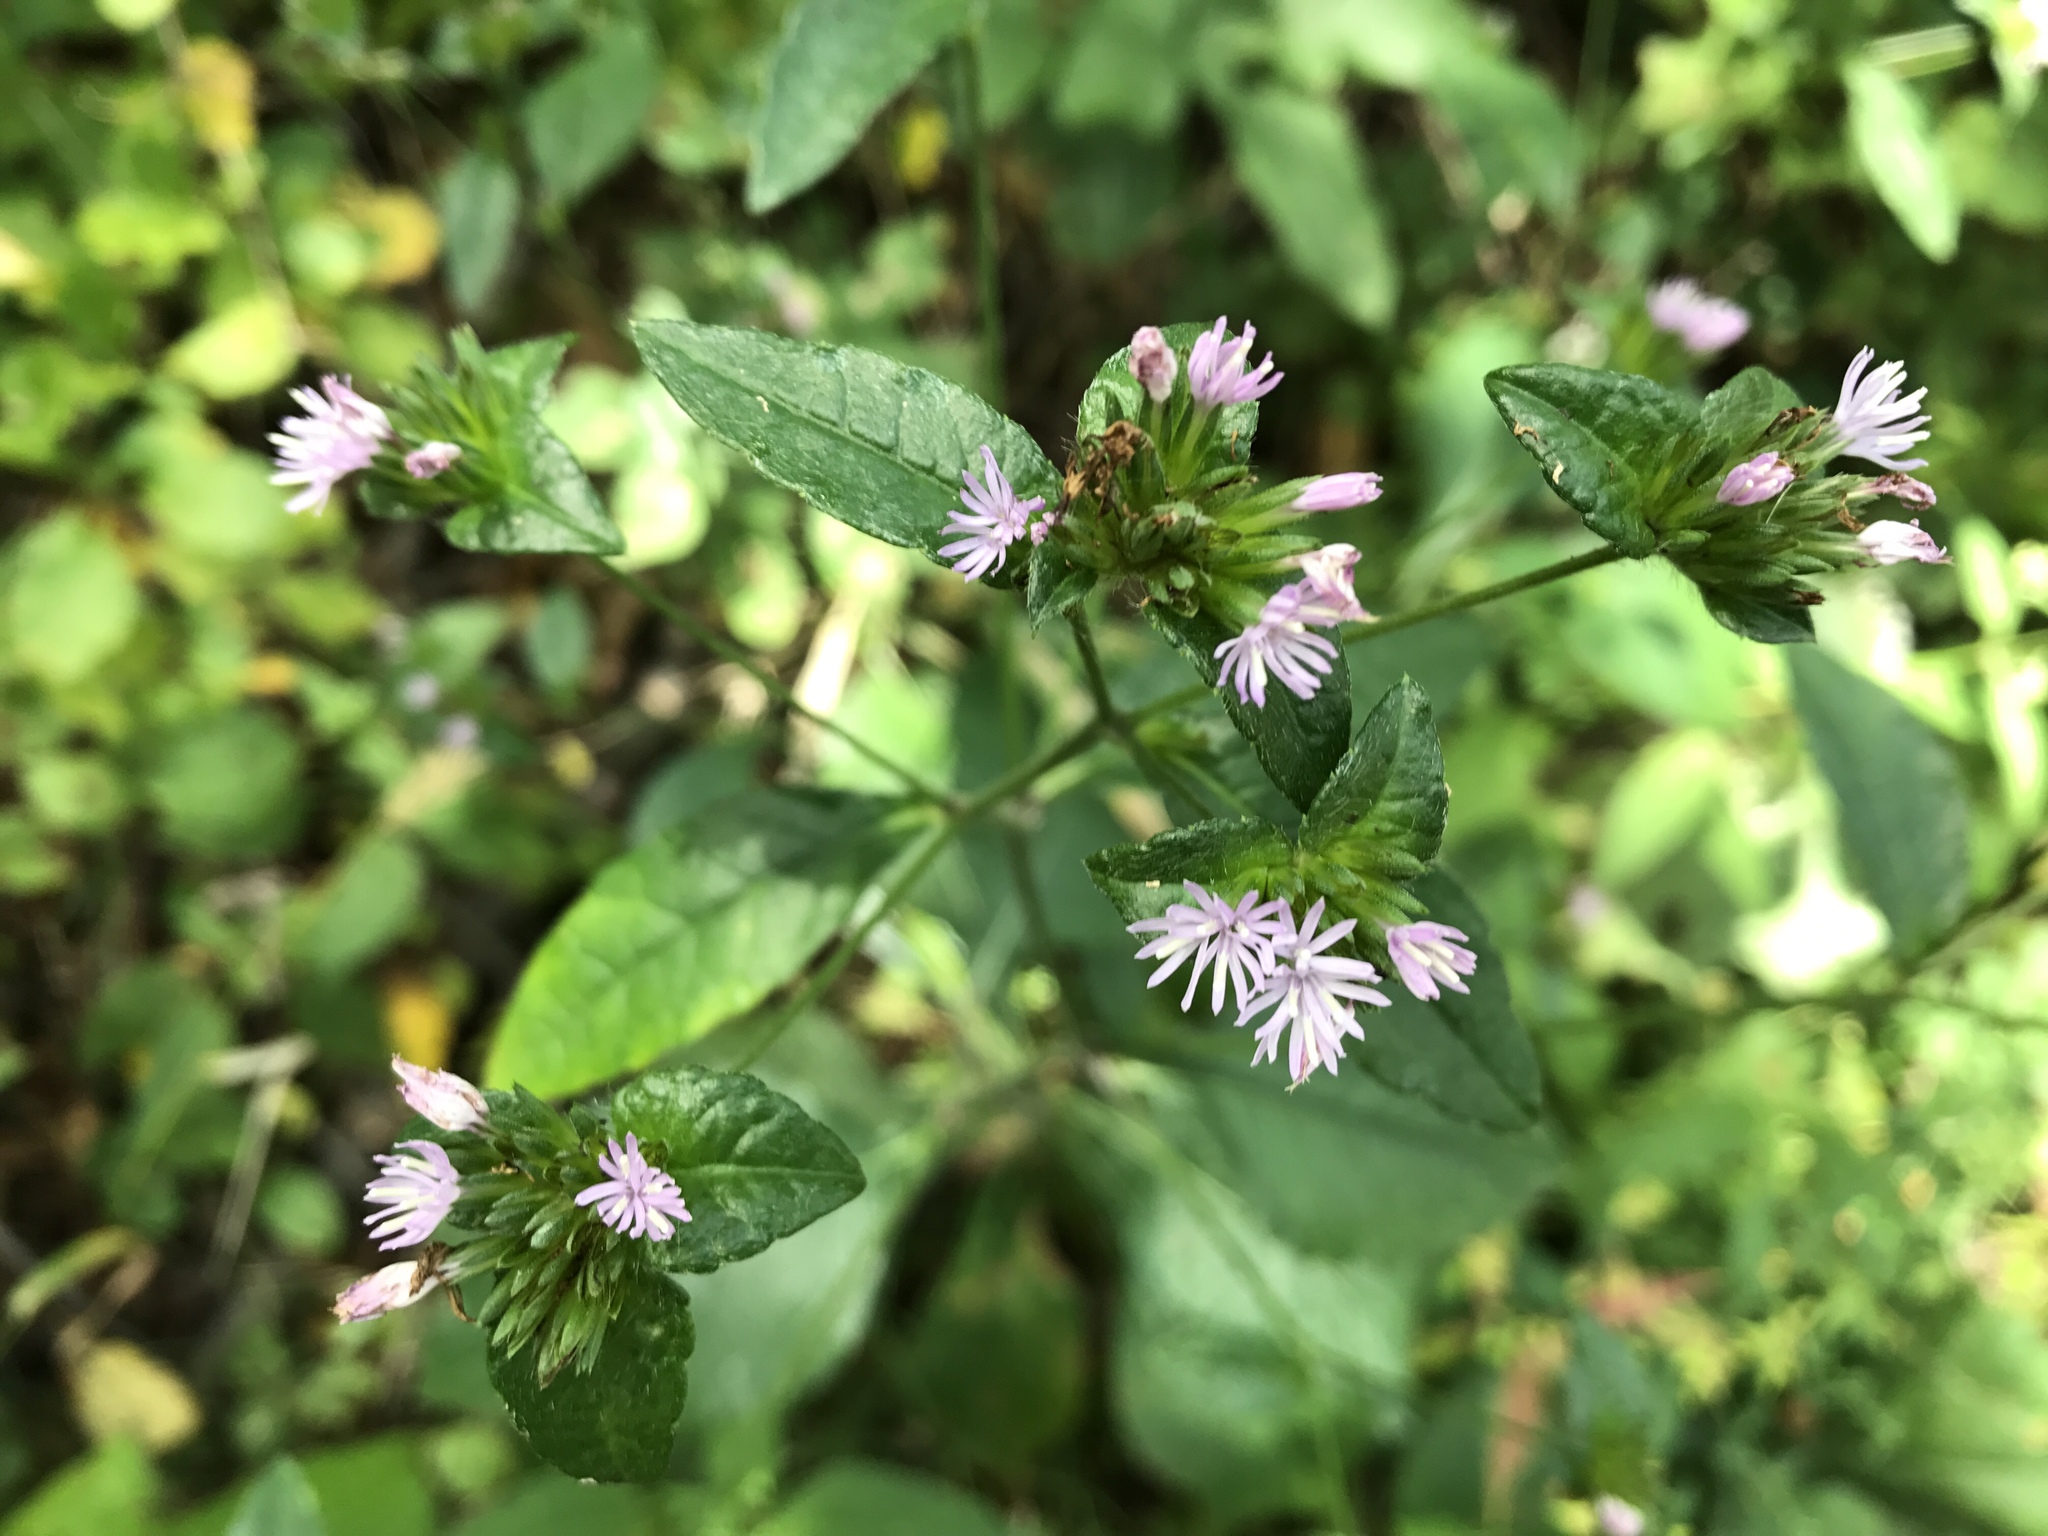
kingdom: Plantae
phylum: Tracheophyta
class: Magnoliopsida
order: Asterales
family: Asteraceae
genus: Elephantopus
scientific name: Elephantopus carolinianus
